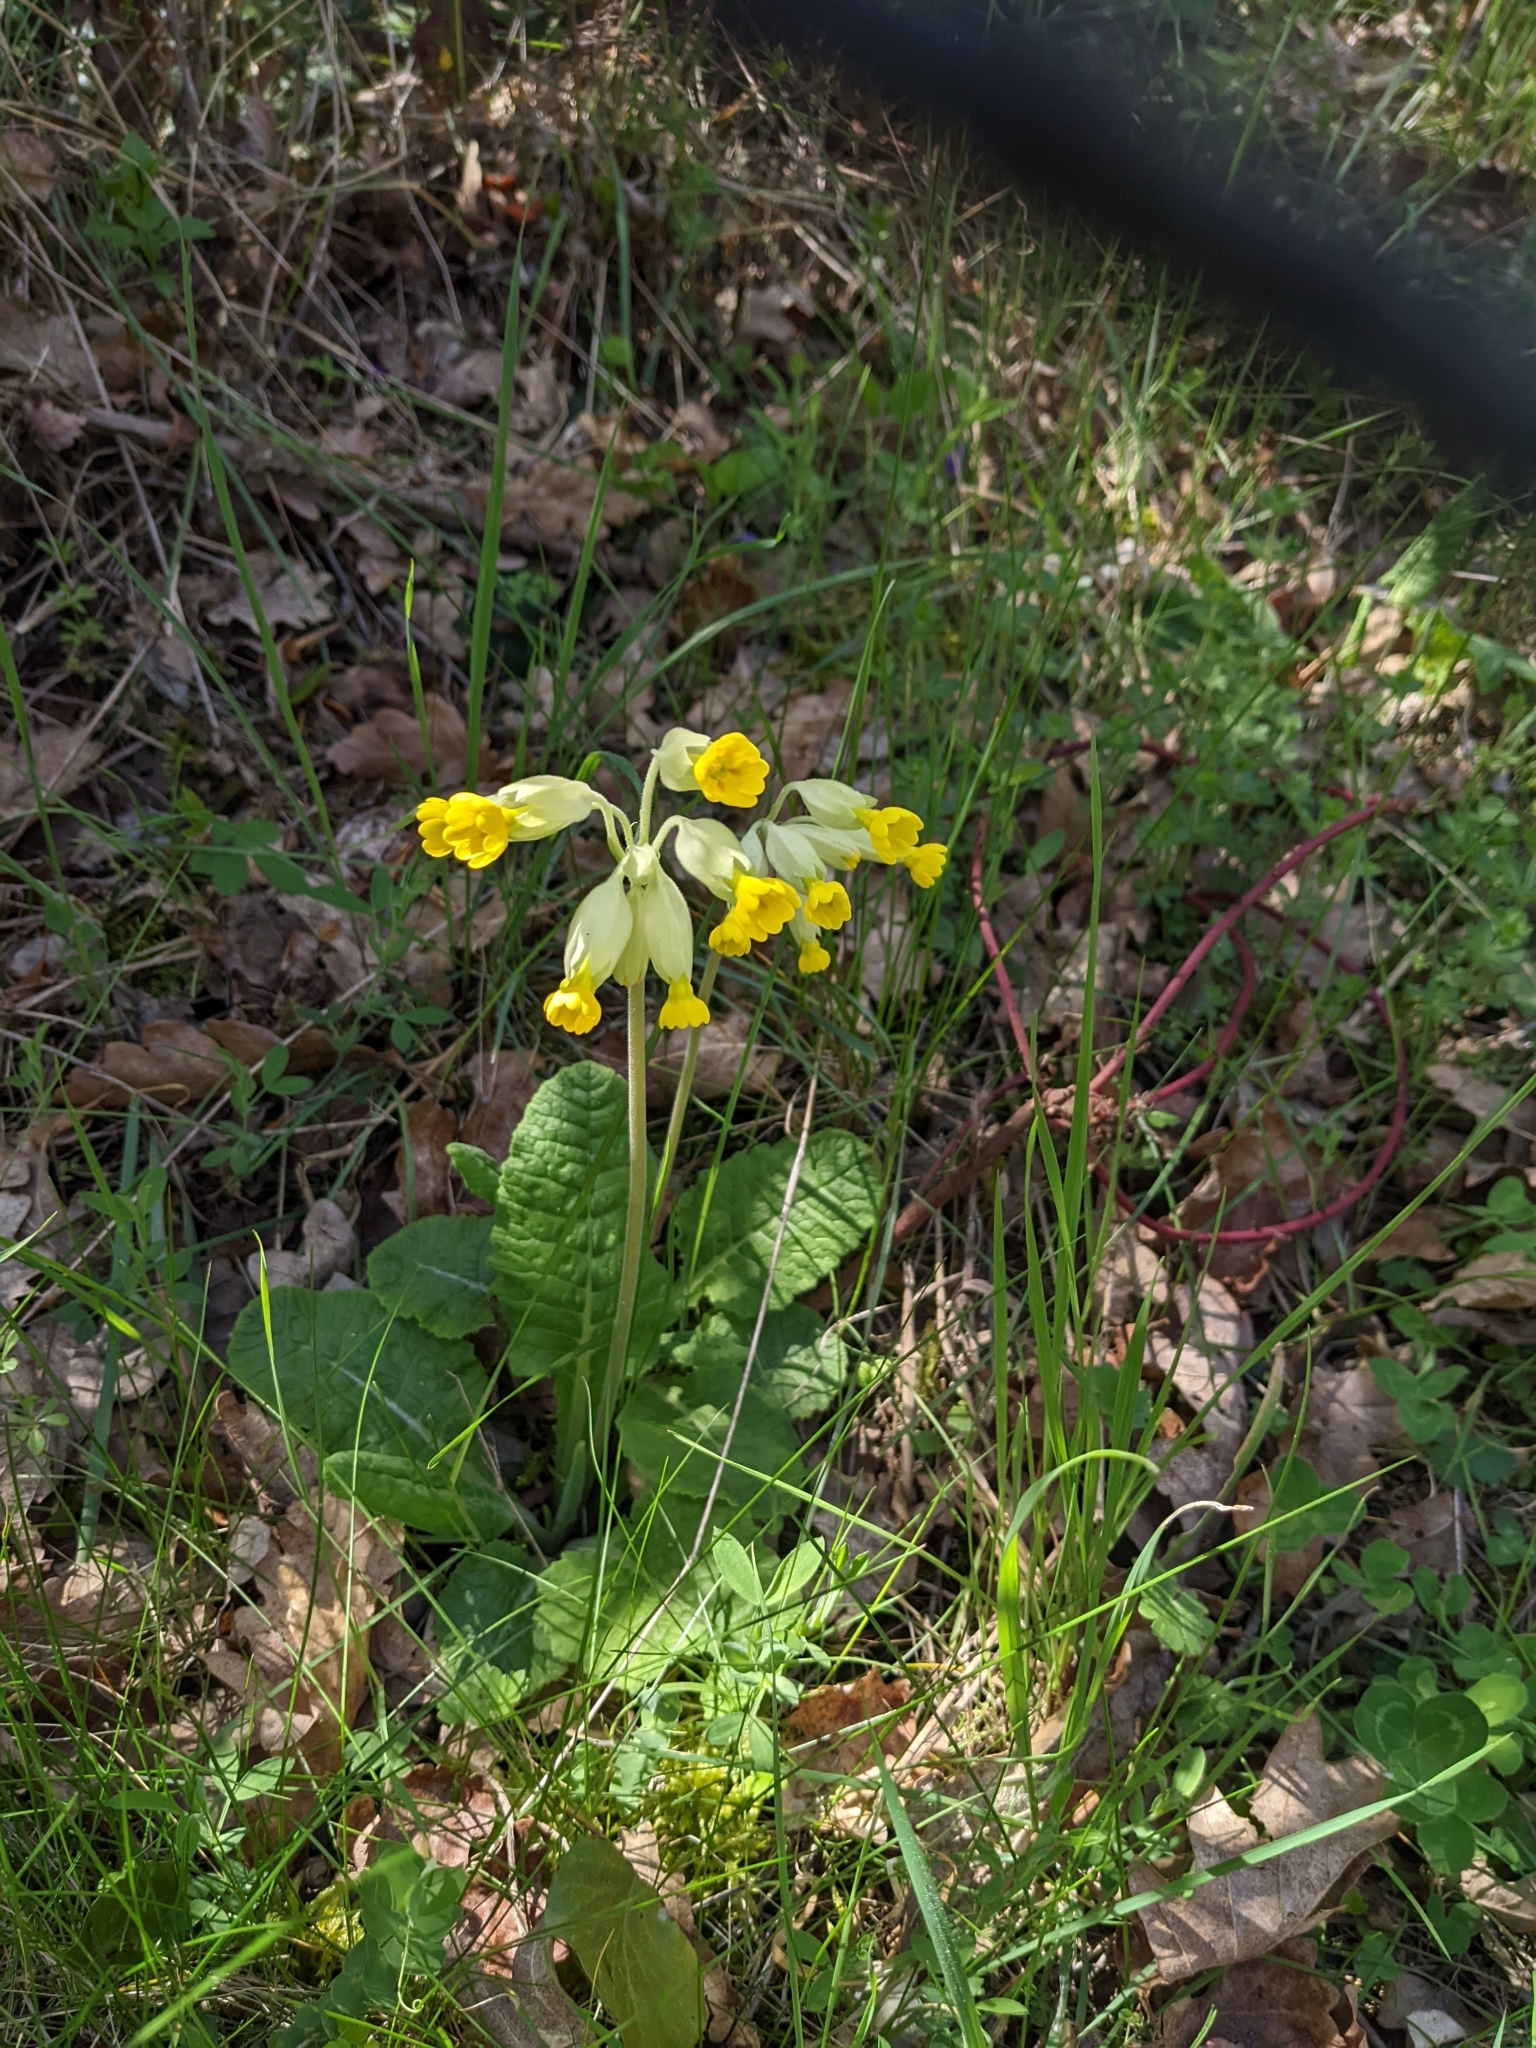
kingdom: Plantae
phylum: Tracheophyta
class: Magnoliopsida
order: Ericales
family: Primulaceae
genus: Primula
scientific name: Primula veris
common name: Cowslip
